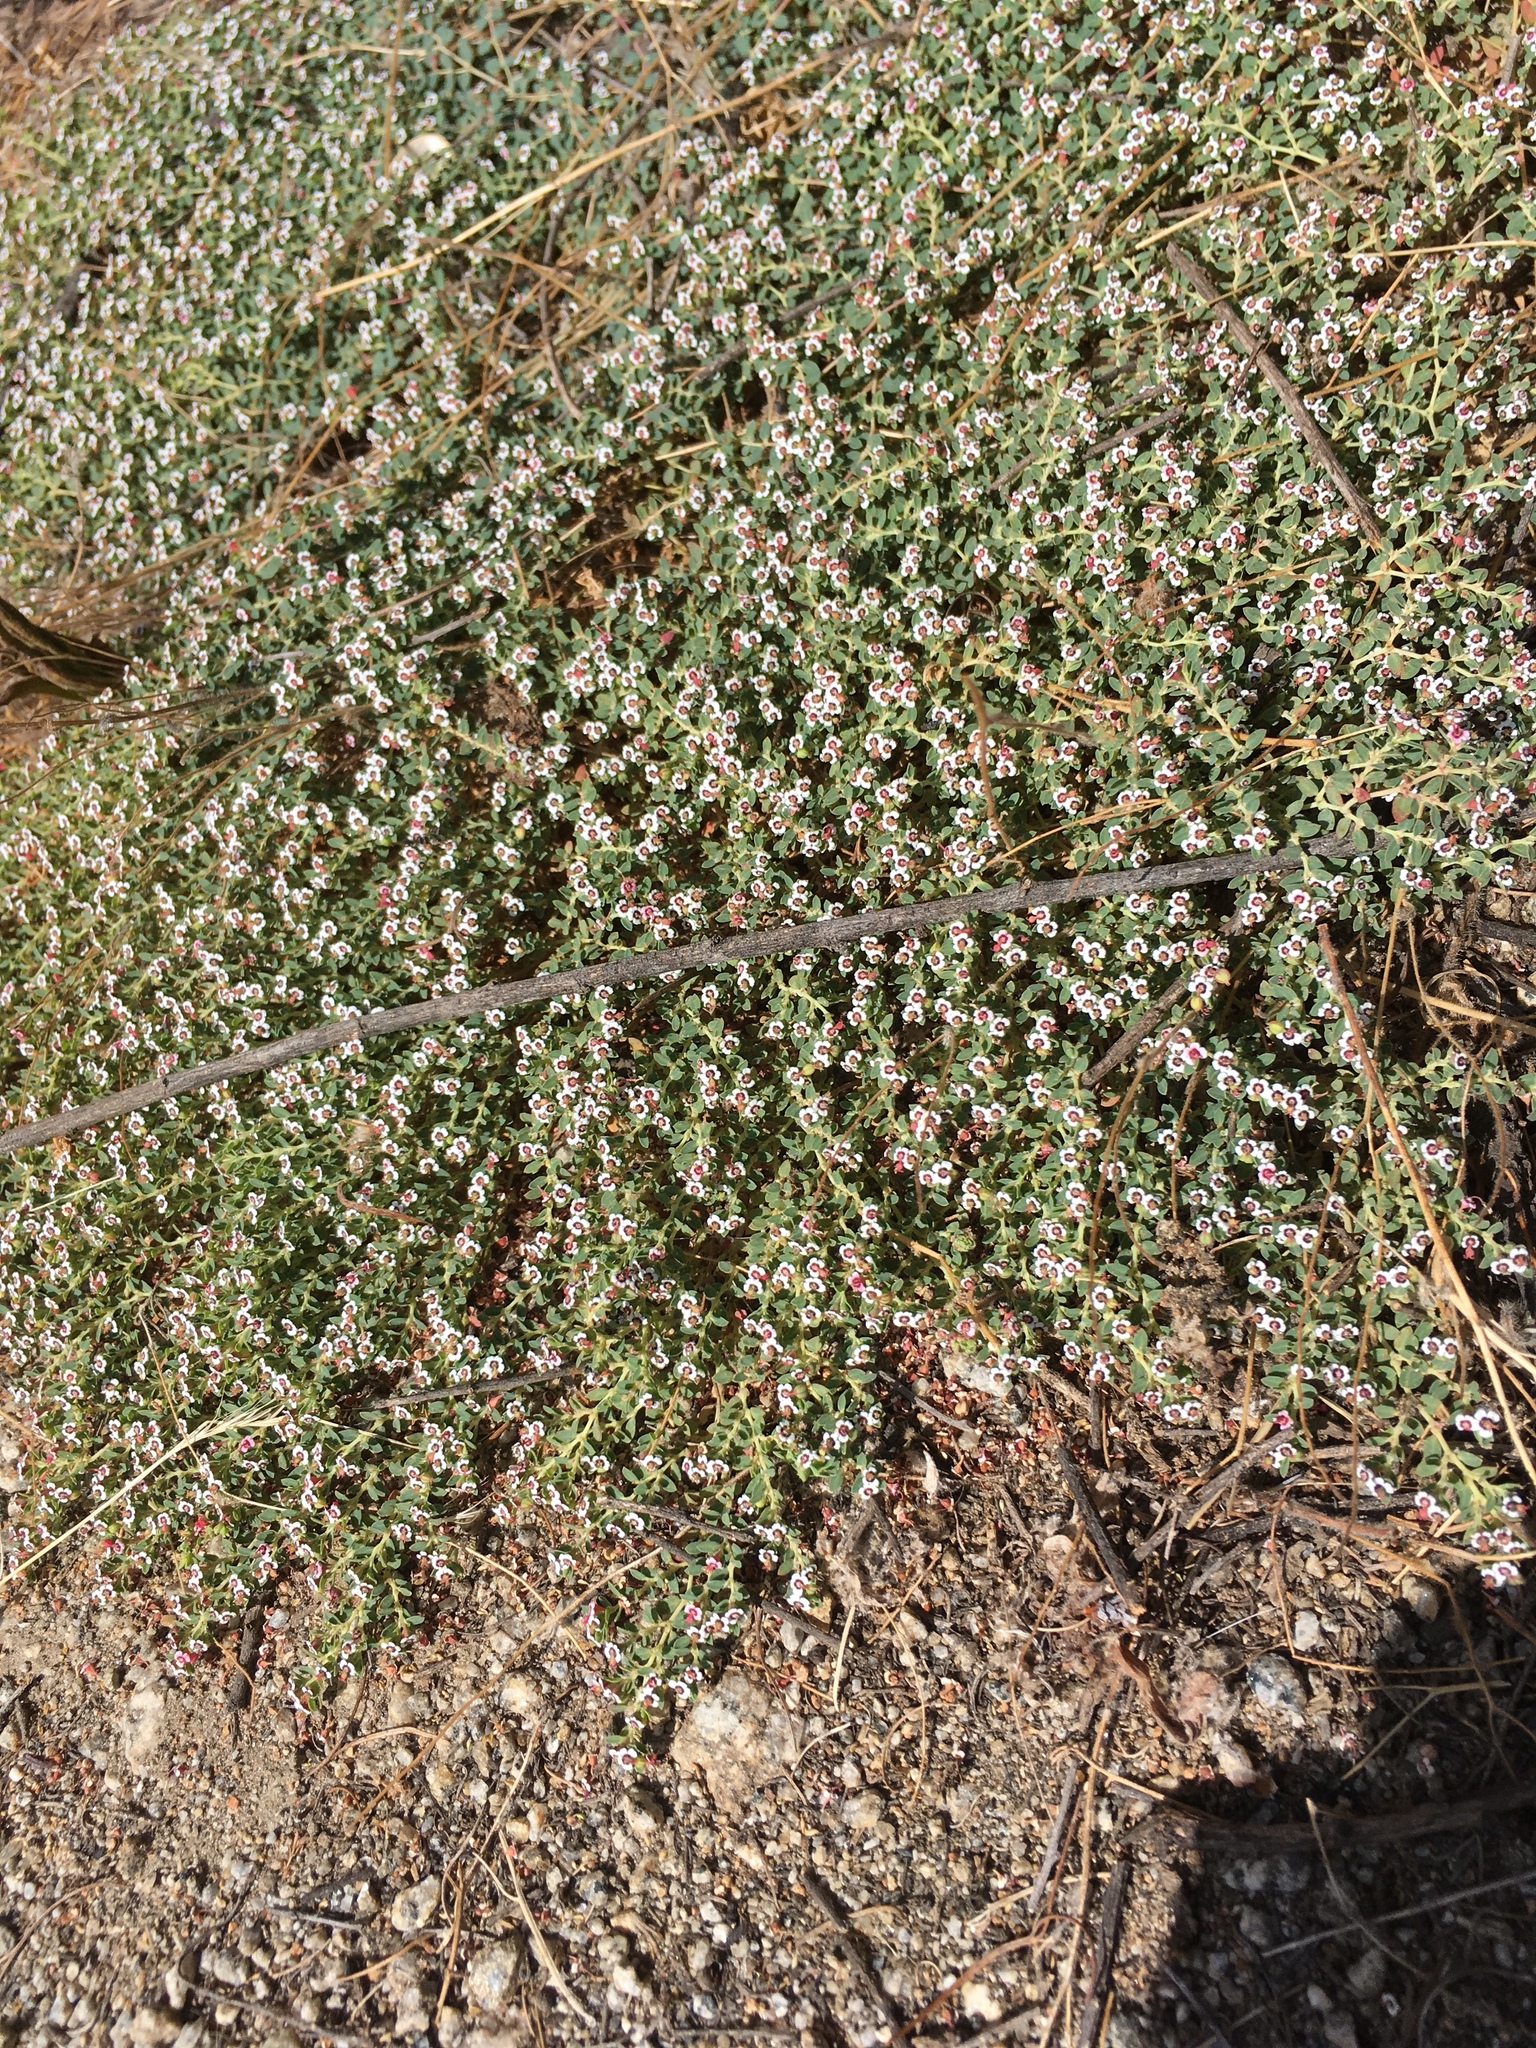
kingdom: Plantae
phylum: Tracheophyta
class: Magnoliopsida
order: Malpighiales
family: Euphorbiaceae
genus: Euphorbia
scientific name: Euphorbia polycarpa
